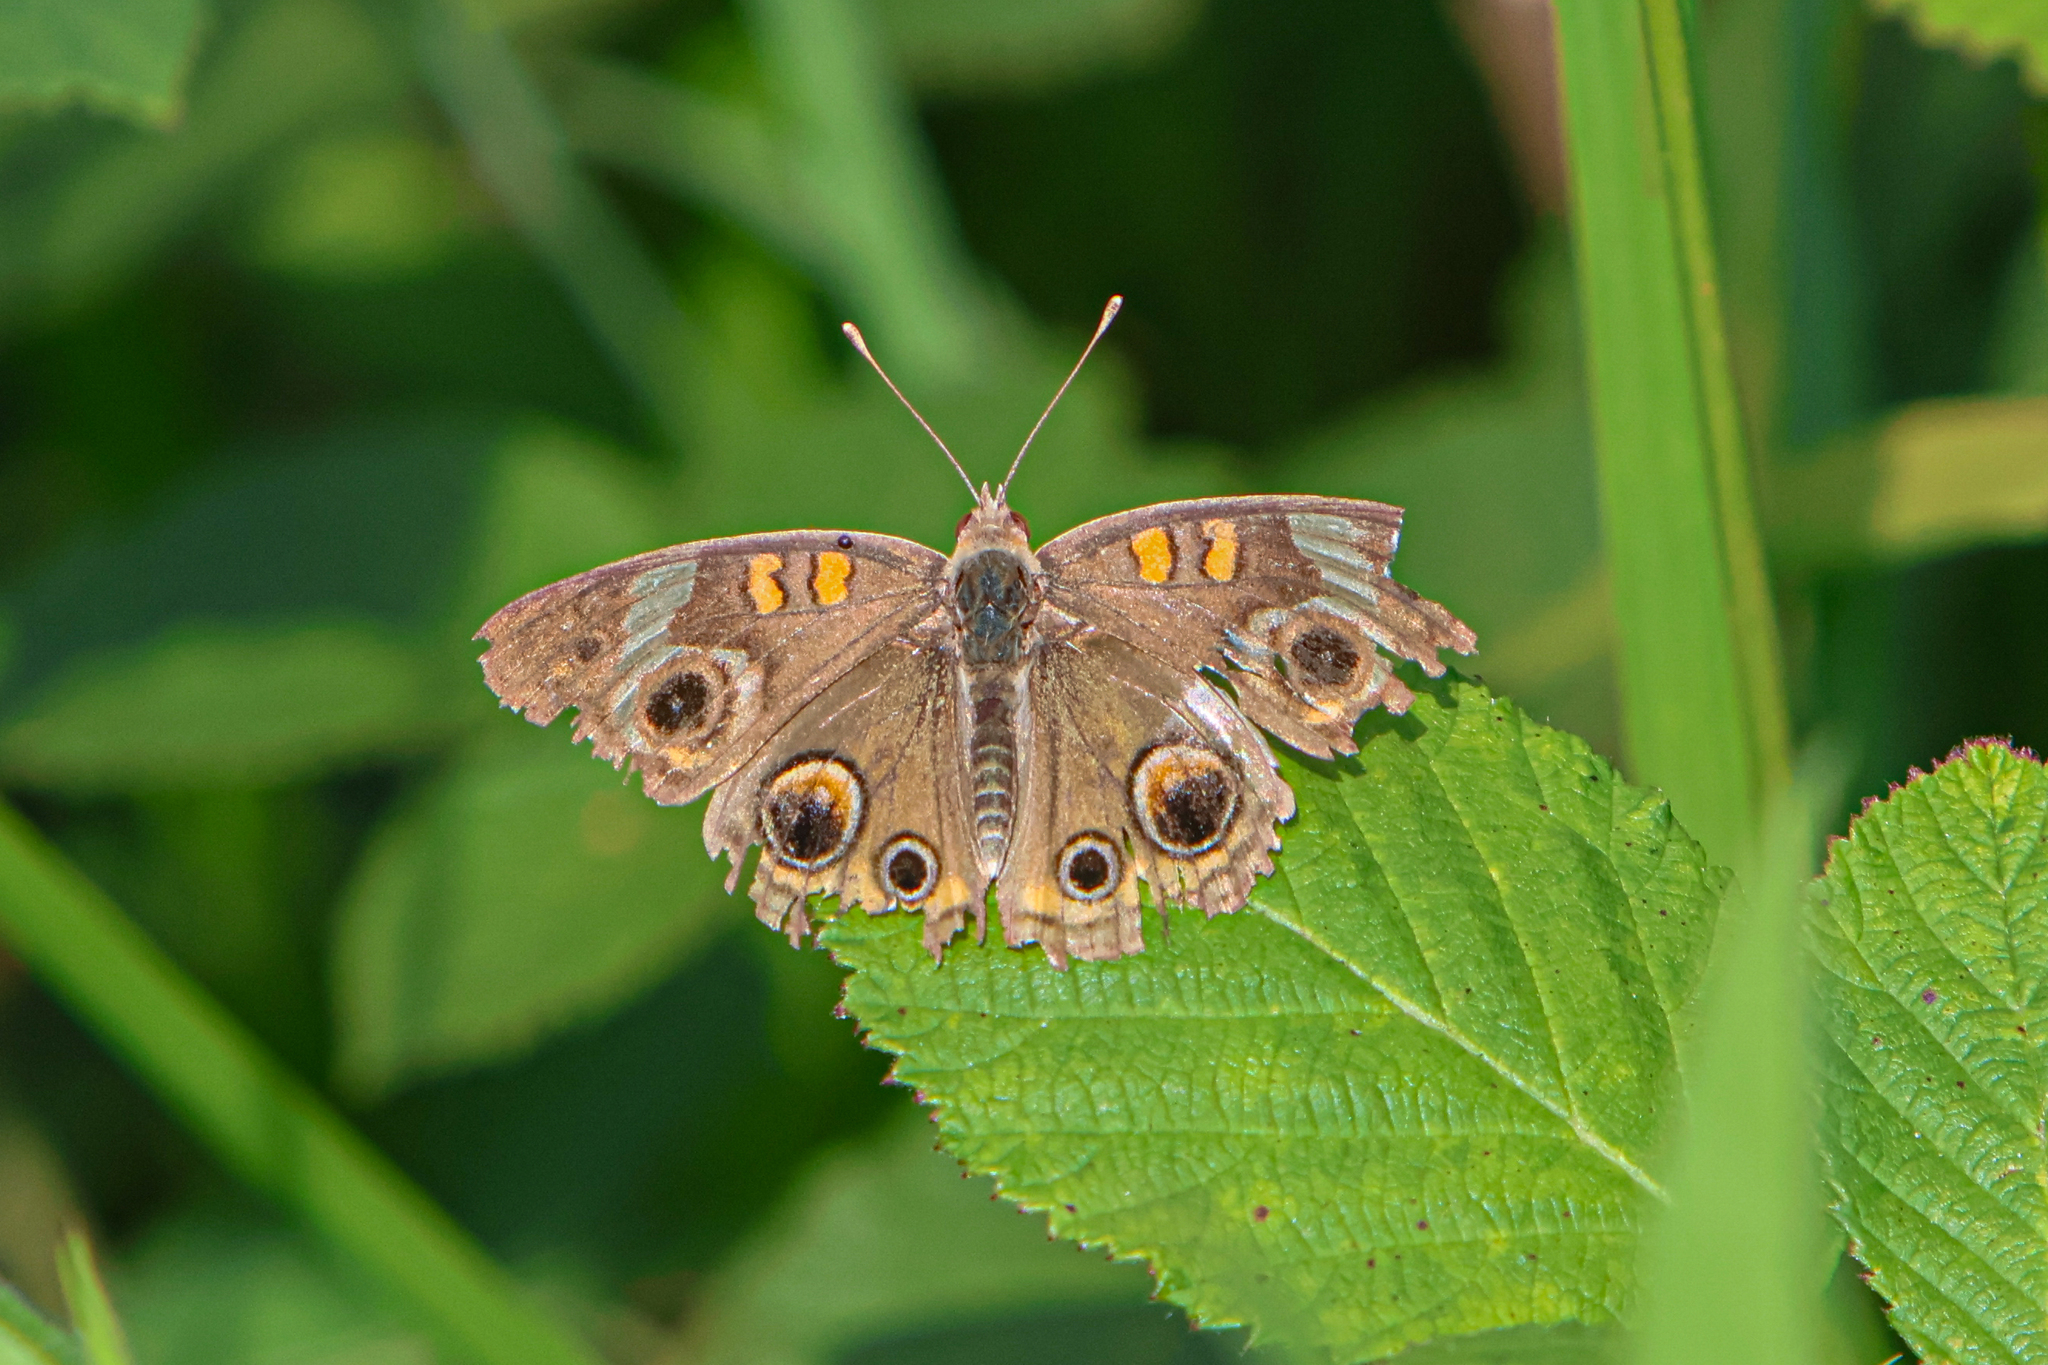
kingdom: Animalia
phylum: Arthropoda
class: Insecta
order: Lepidoptera
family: Nymphalidae
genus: Junonia
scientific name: Junonia coenia
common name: Common buckeye
